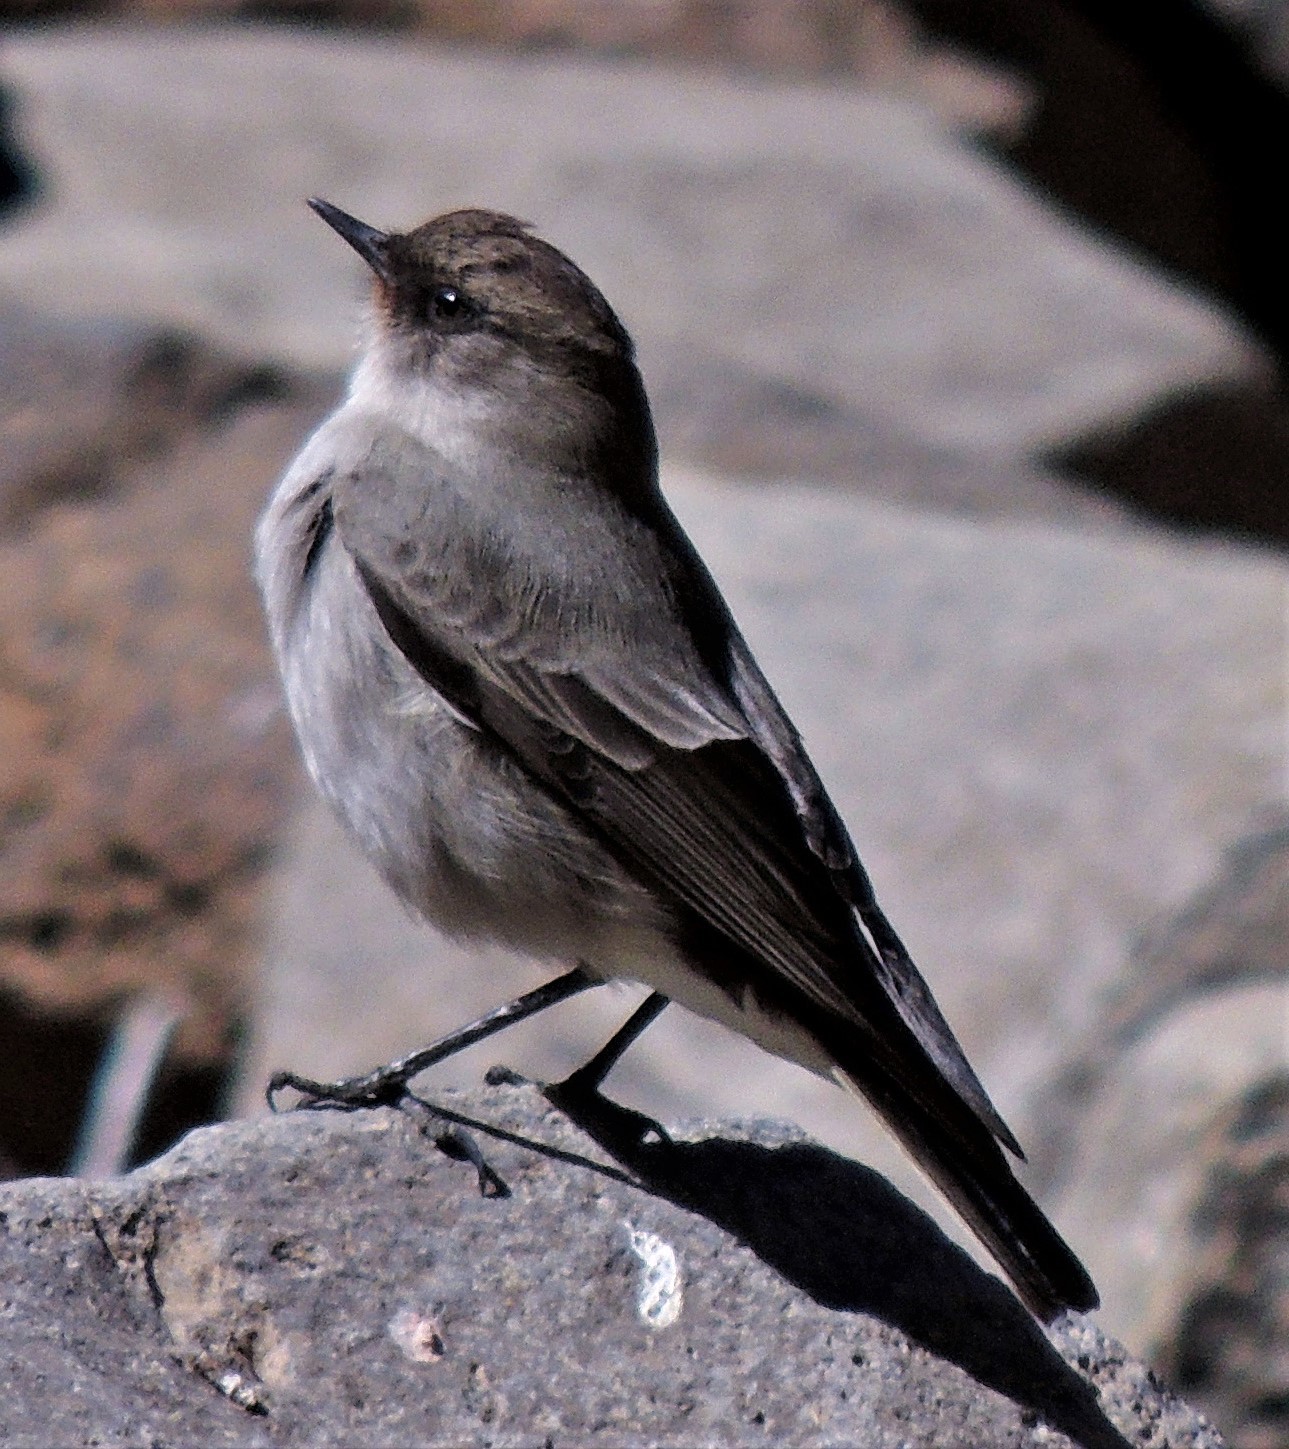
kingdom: Animalia
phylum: Chordata
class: Aves
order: Passeriformes
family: Tyrannidae
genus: Muscisaxicola
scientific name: Muscisaxicola maclovianus
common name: Dark-faced ground tyrant
